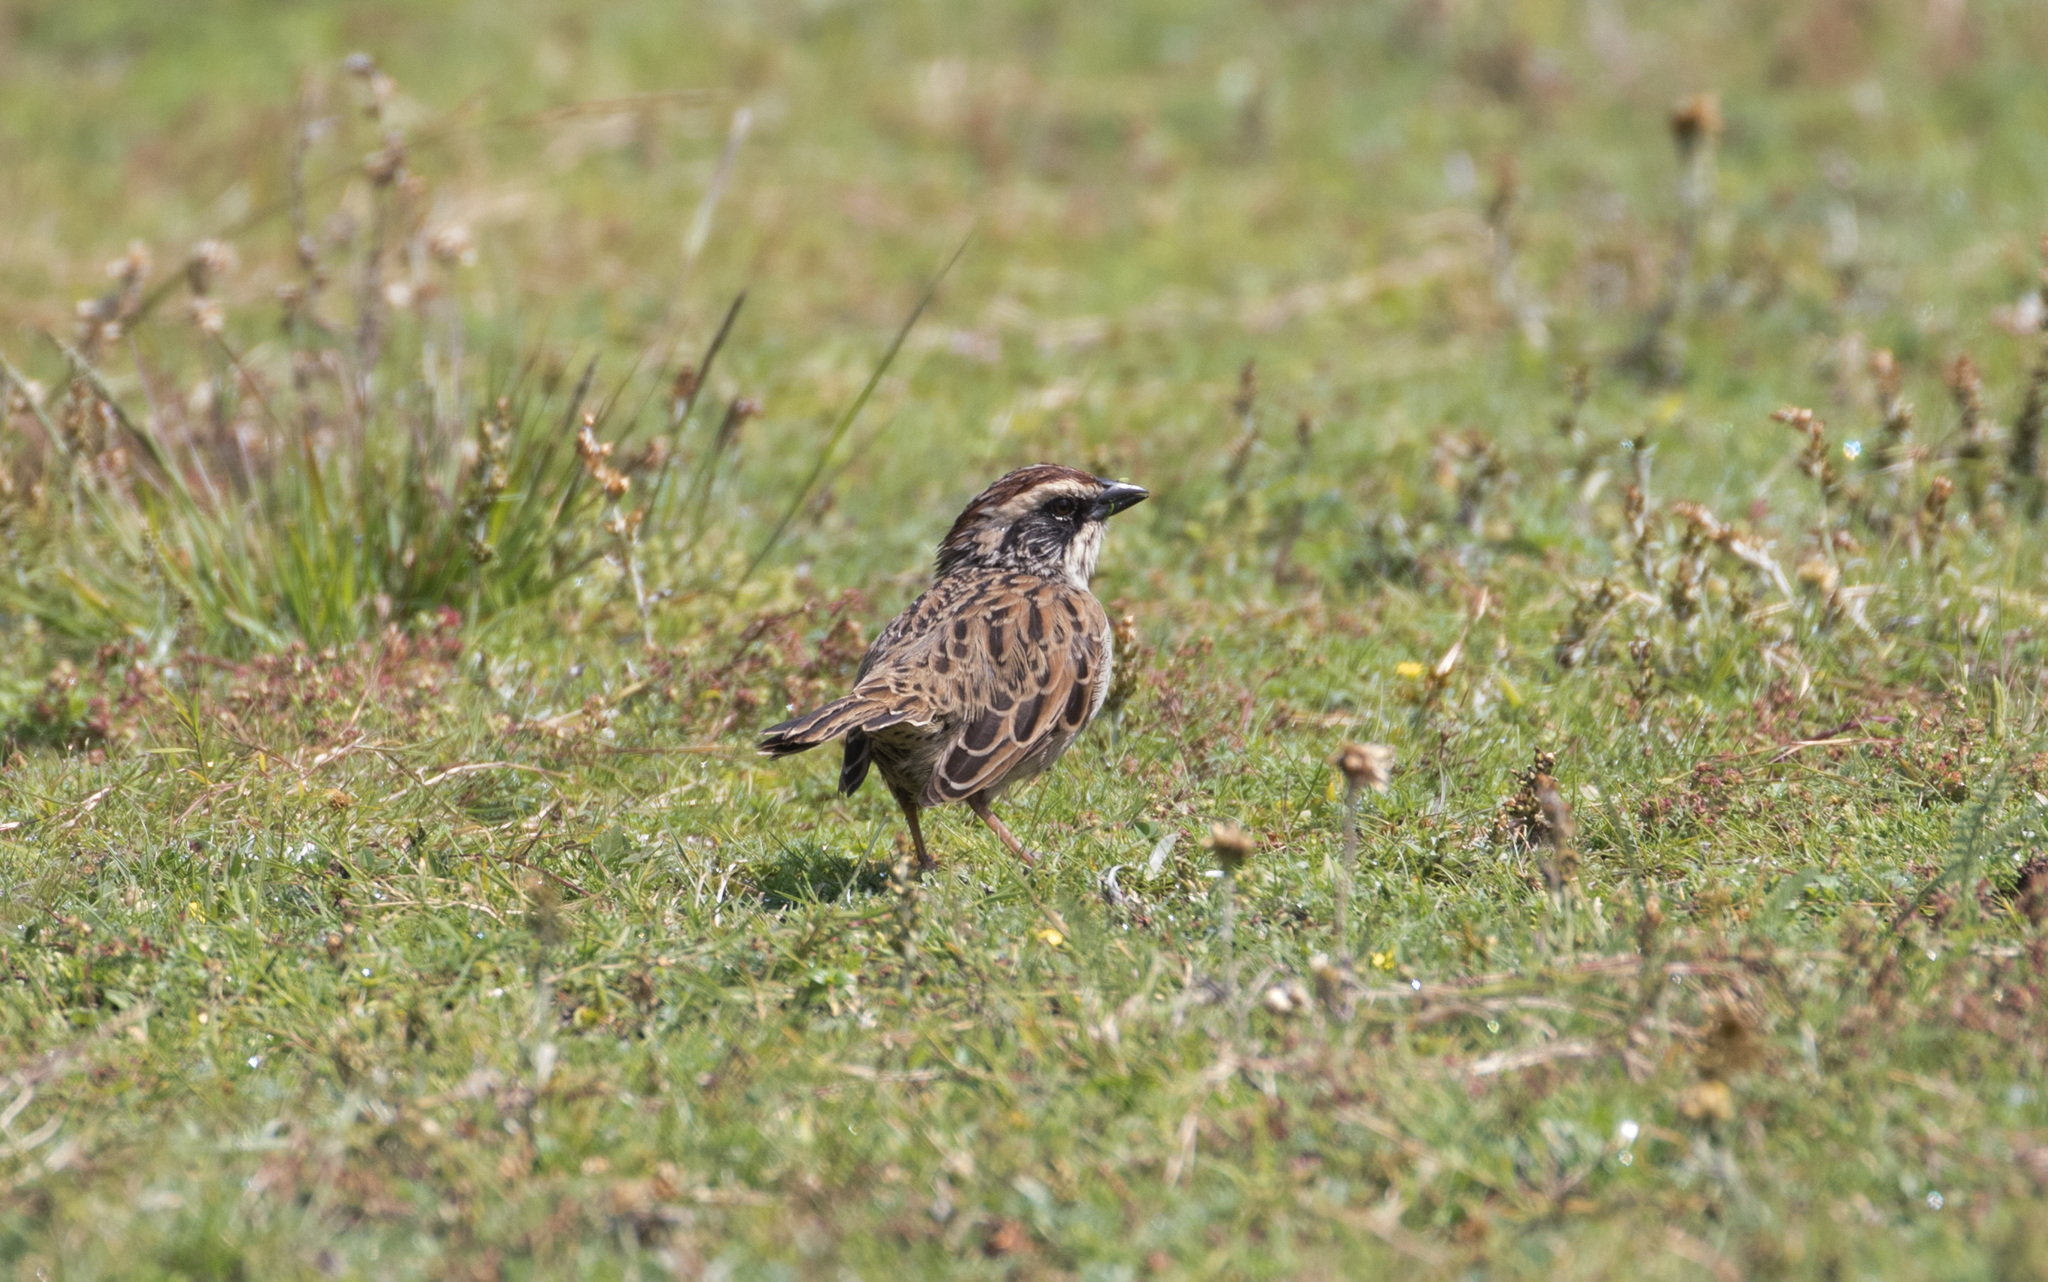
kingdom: Animalia
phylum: Chordata
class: Aves
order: Passeriformes
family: Passerellidae
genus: Oriturus
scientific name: Oriturus superciliosus
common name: Striped sparrow
